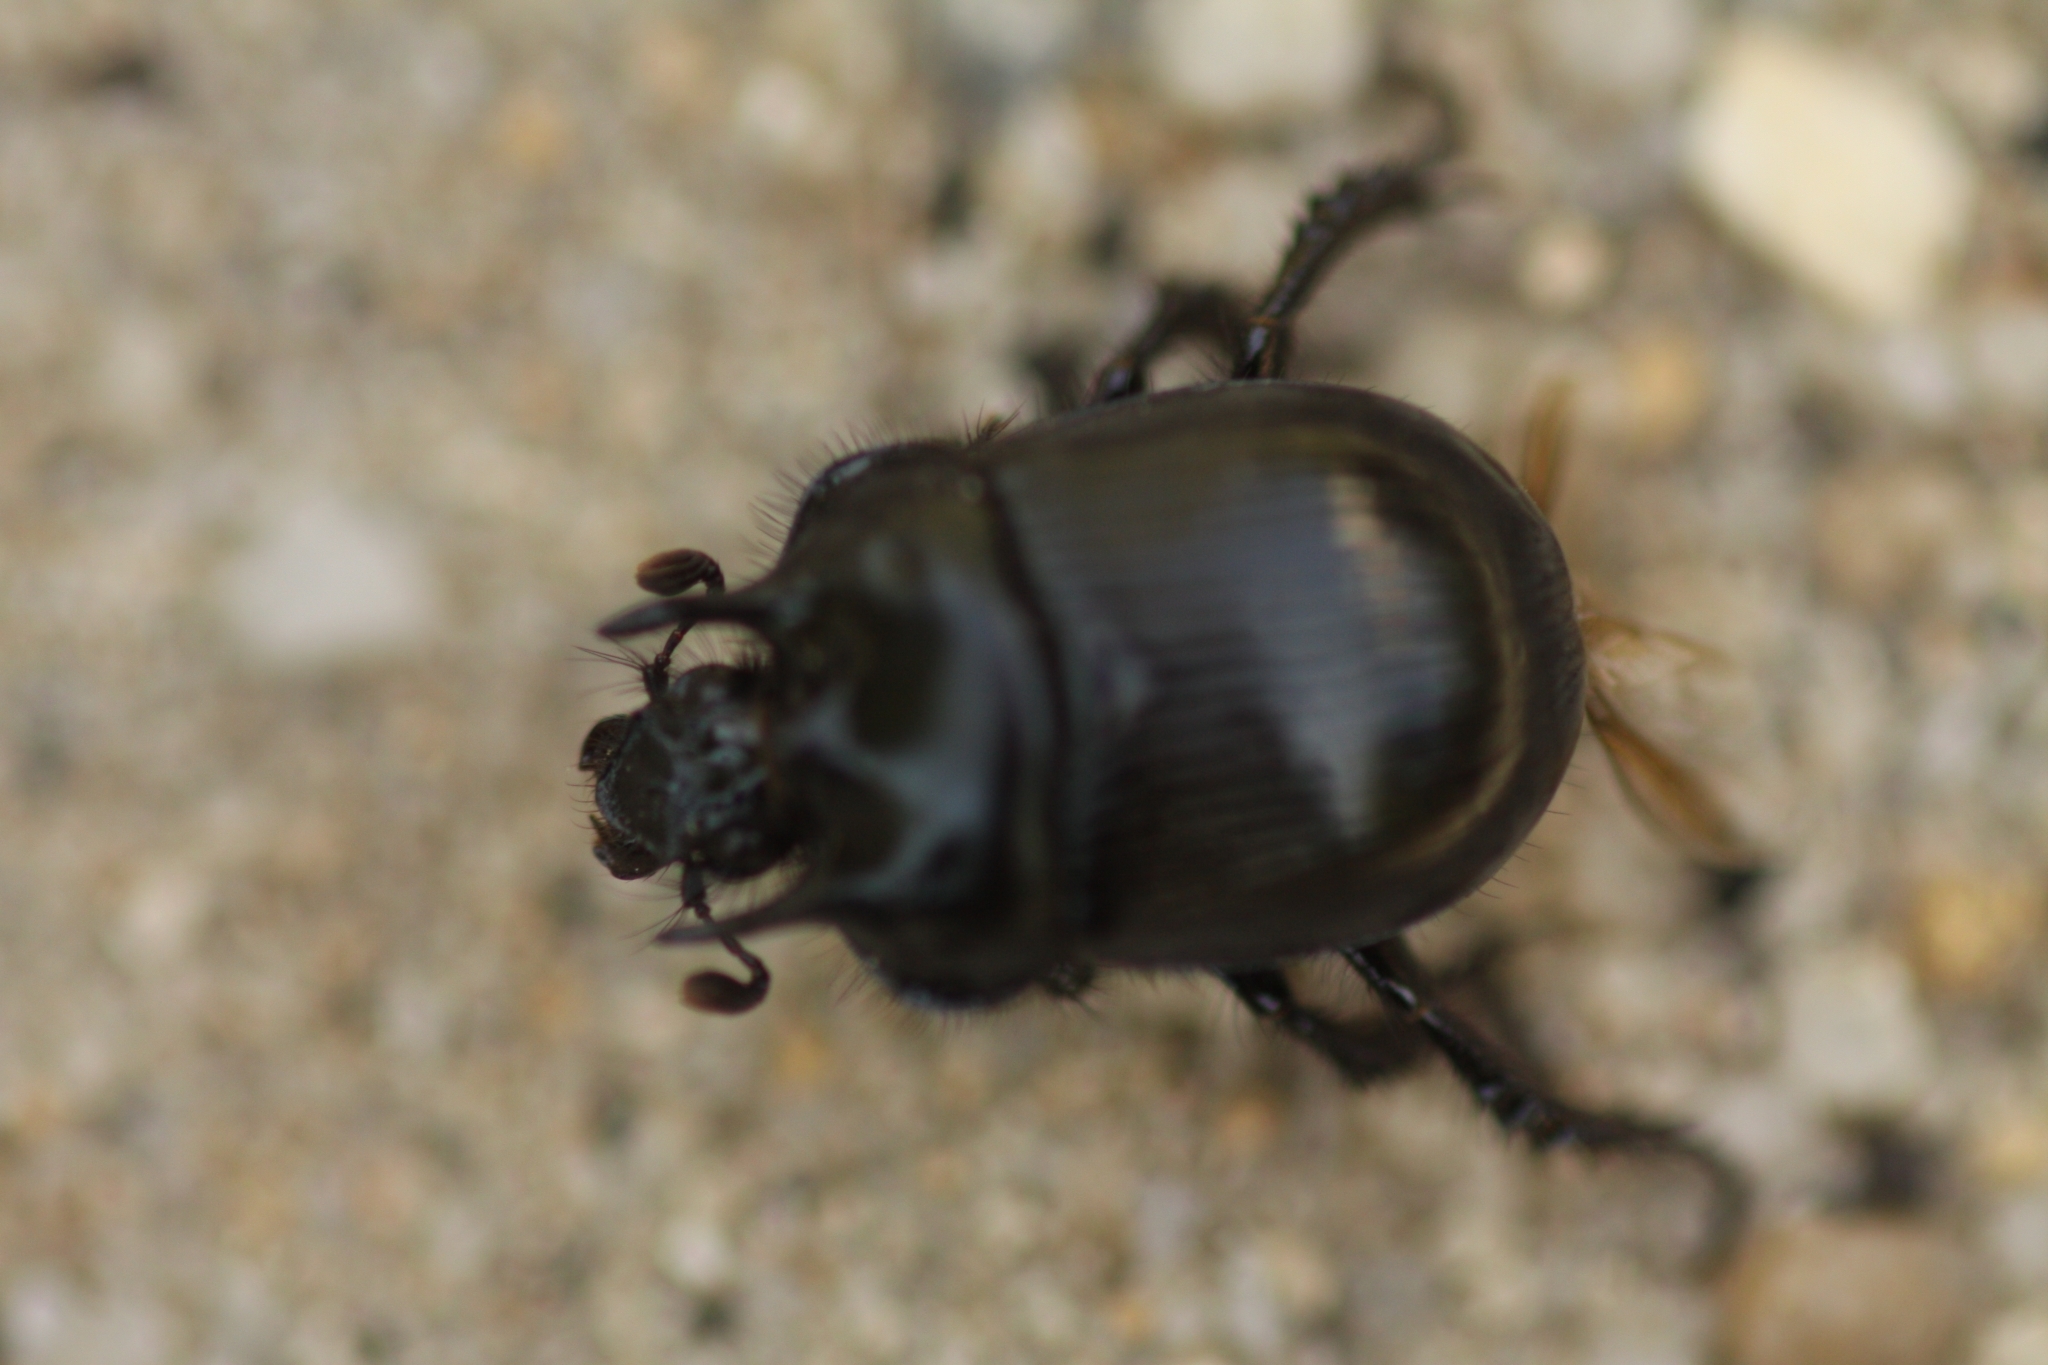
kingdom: Animalia
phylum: Arthropoda
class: Insecta
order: Coleoptera
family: Geotrupidae
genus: Typhaeus
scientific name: Typhaeus typhoeus
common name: Minotaur beetle
